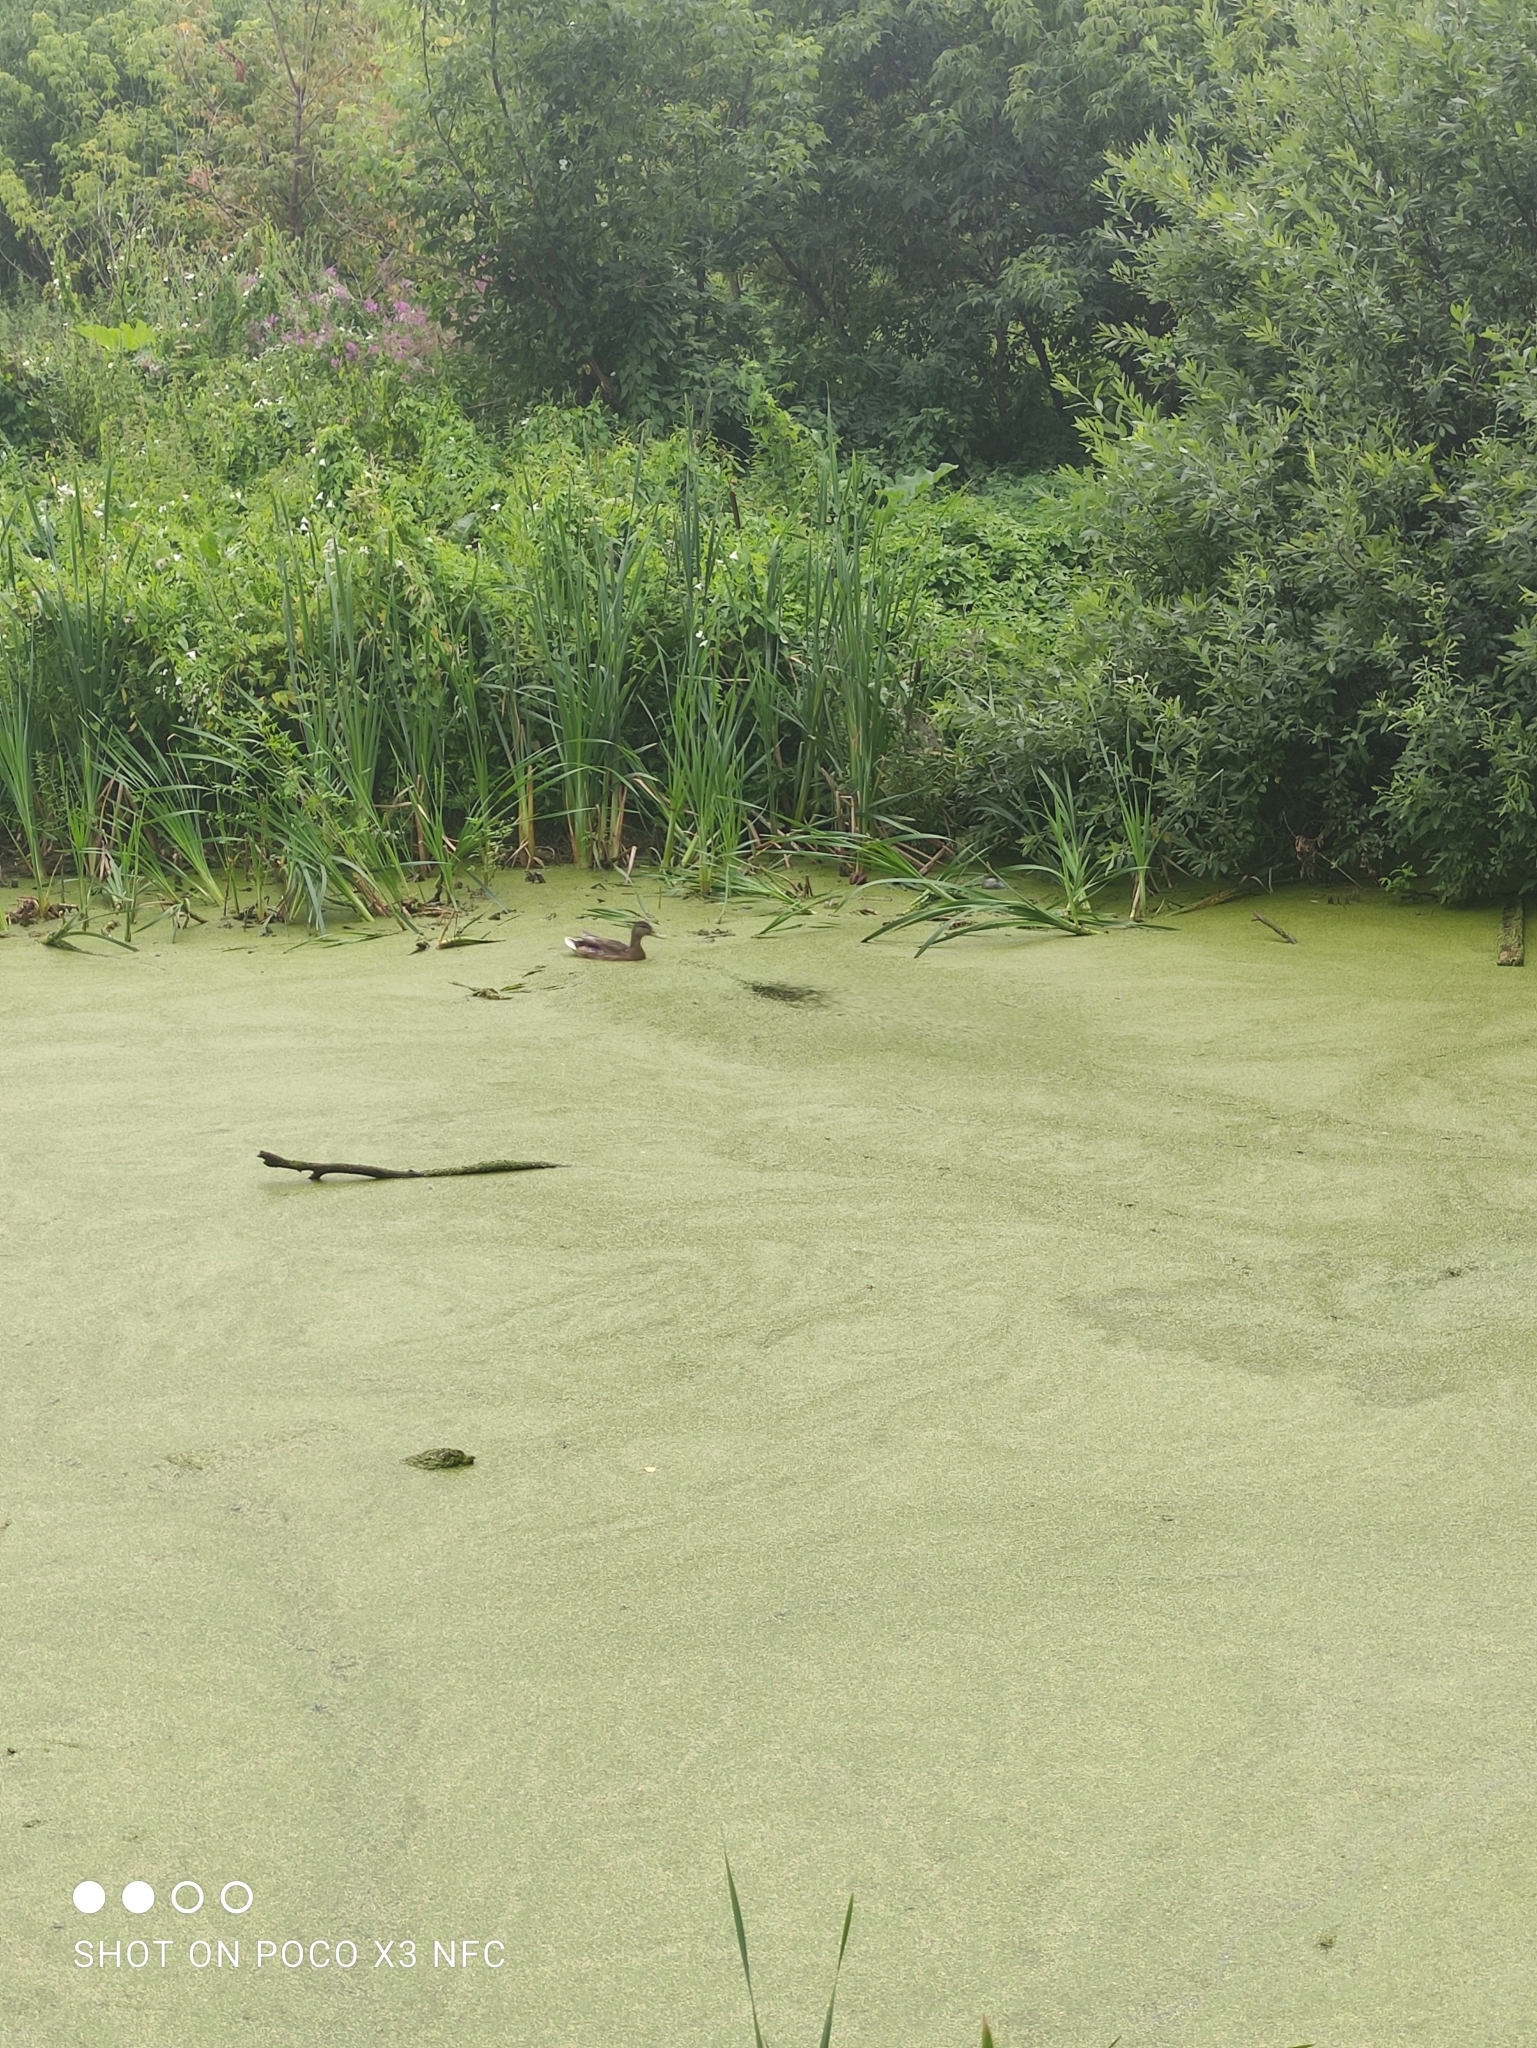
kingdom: Animalia
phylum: Chordata
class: Aves
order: Anseriformes
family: Anatidae
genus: Anas
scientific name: Anas platyrhynchos
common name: Mallard
